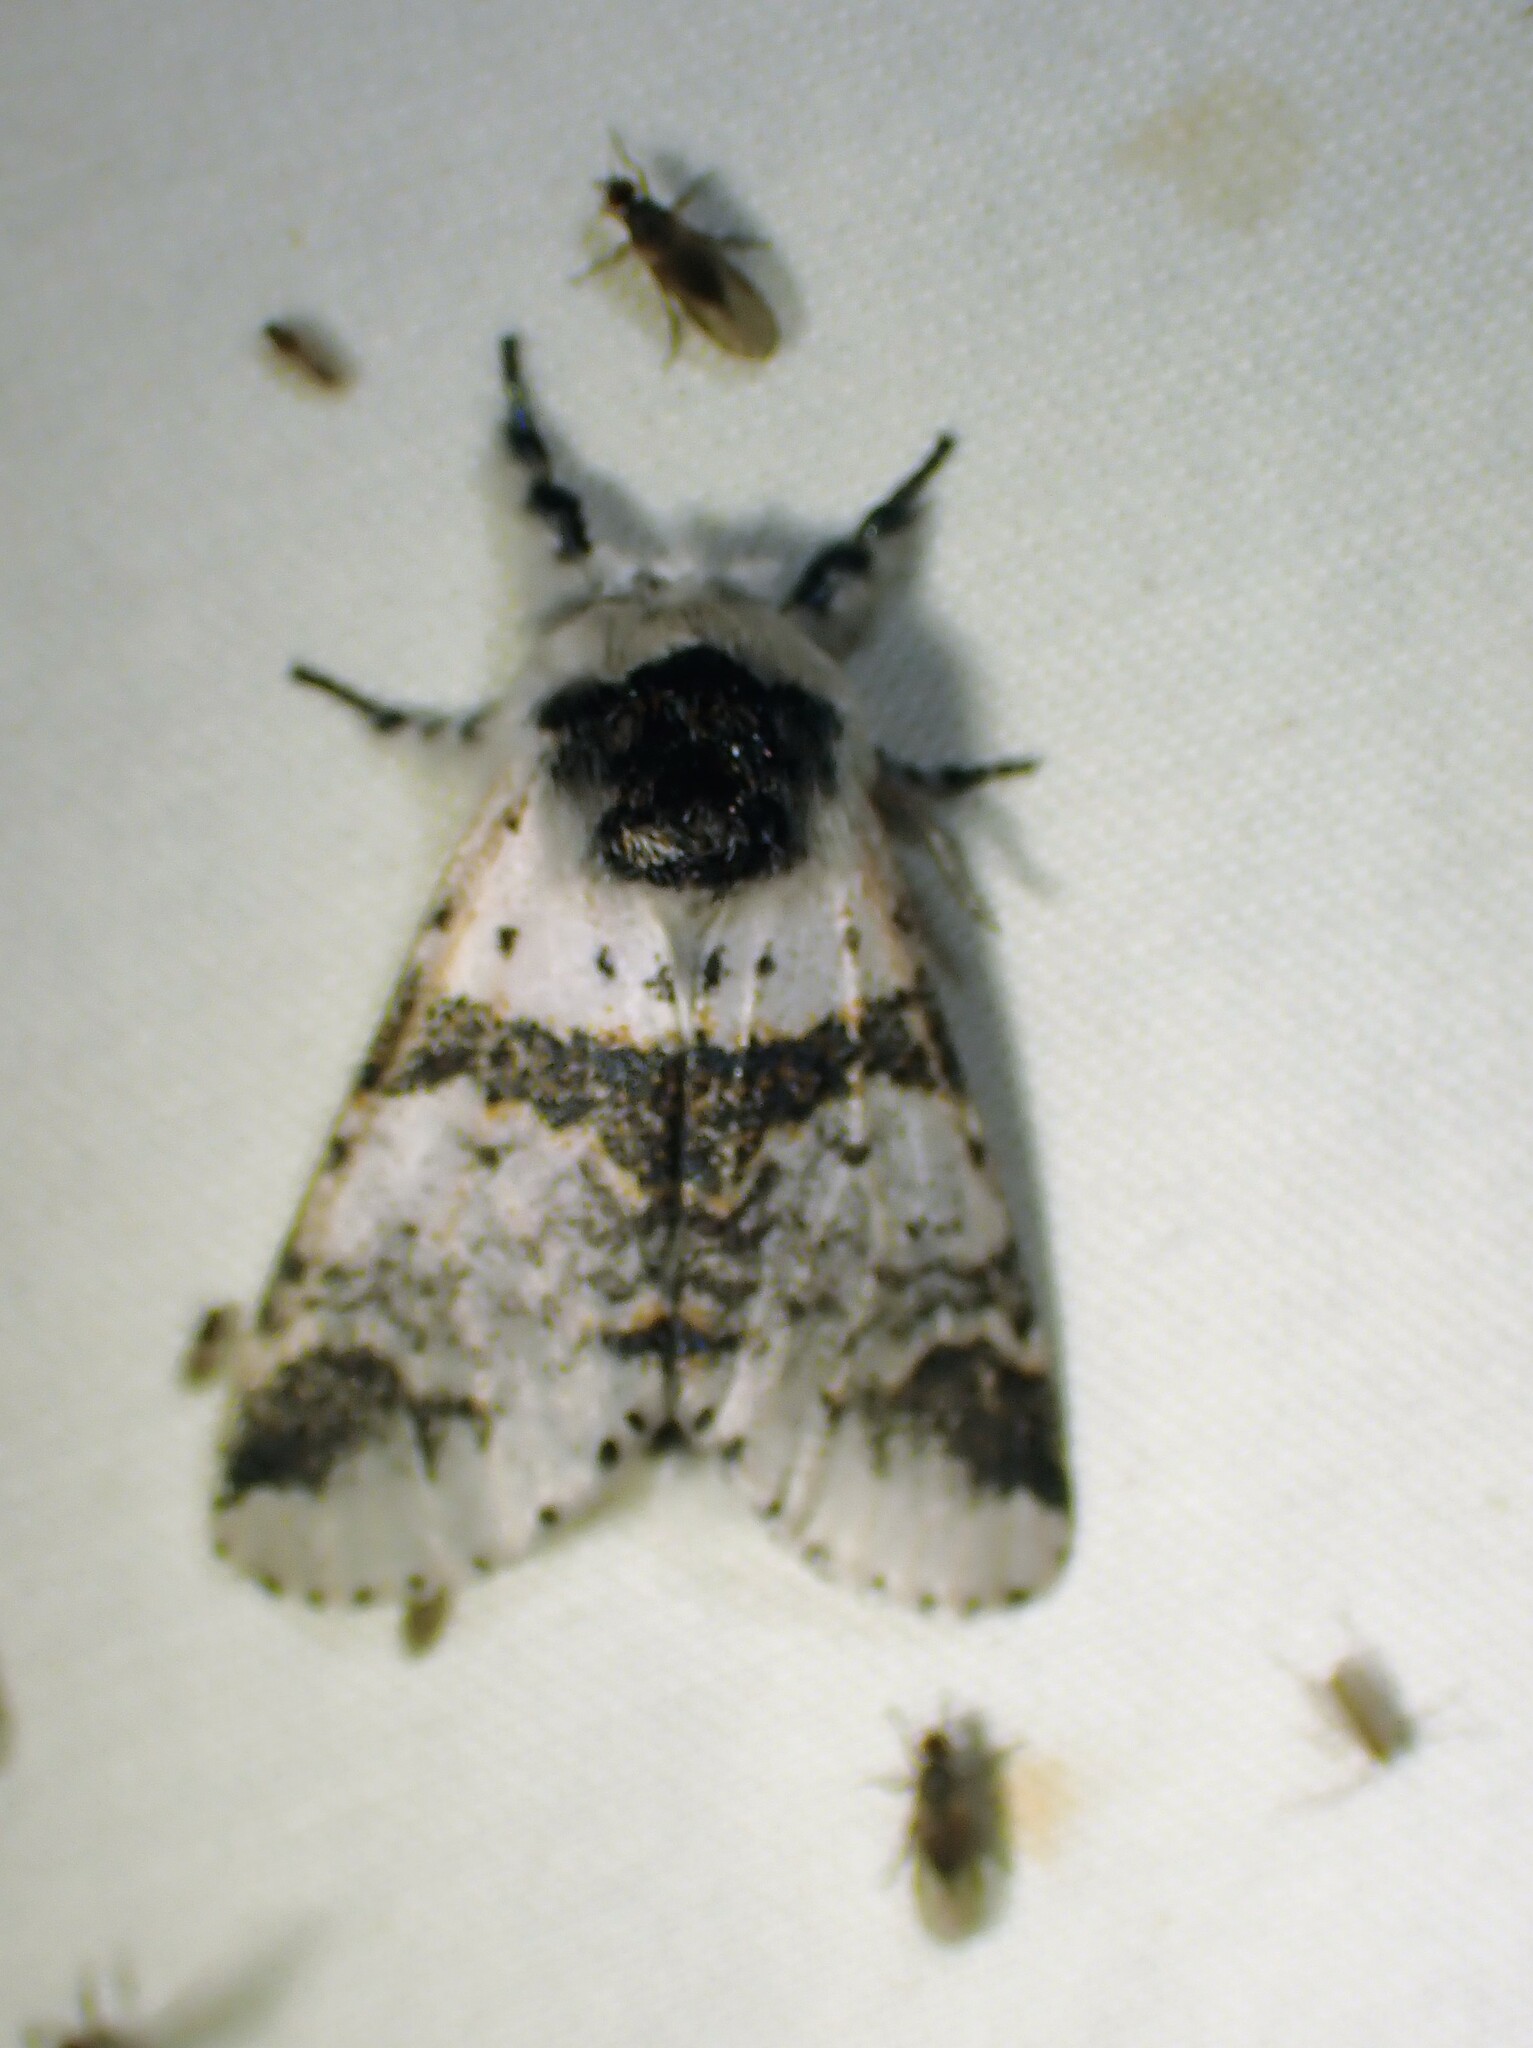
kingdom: Animalia
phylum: Arthropoda
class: Insecta
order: Lepidoptera
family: Notodontidae
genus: Furcula
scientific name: Furcula scolopendrina
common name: Zigzag furcula moth
